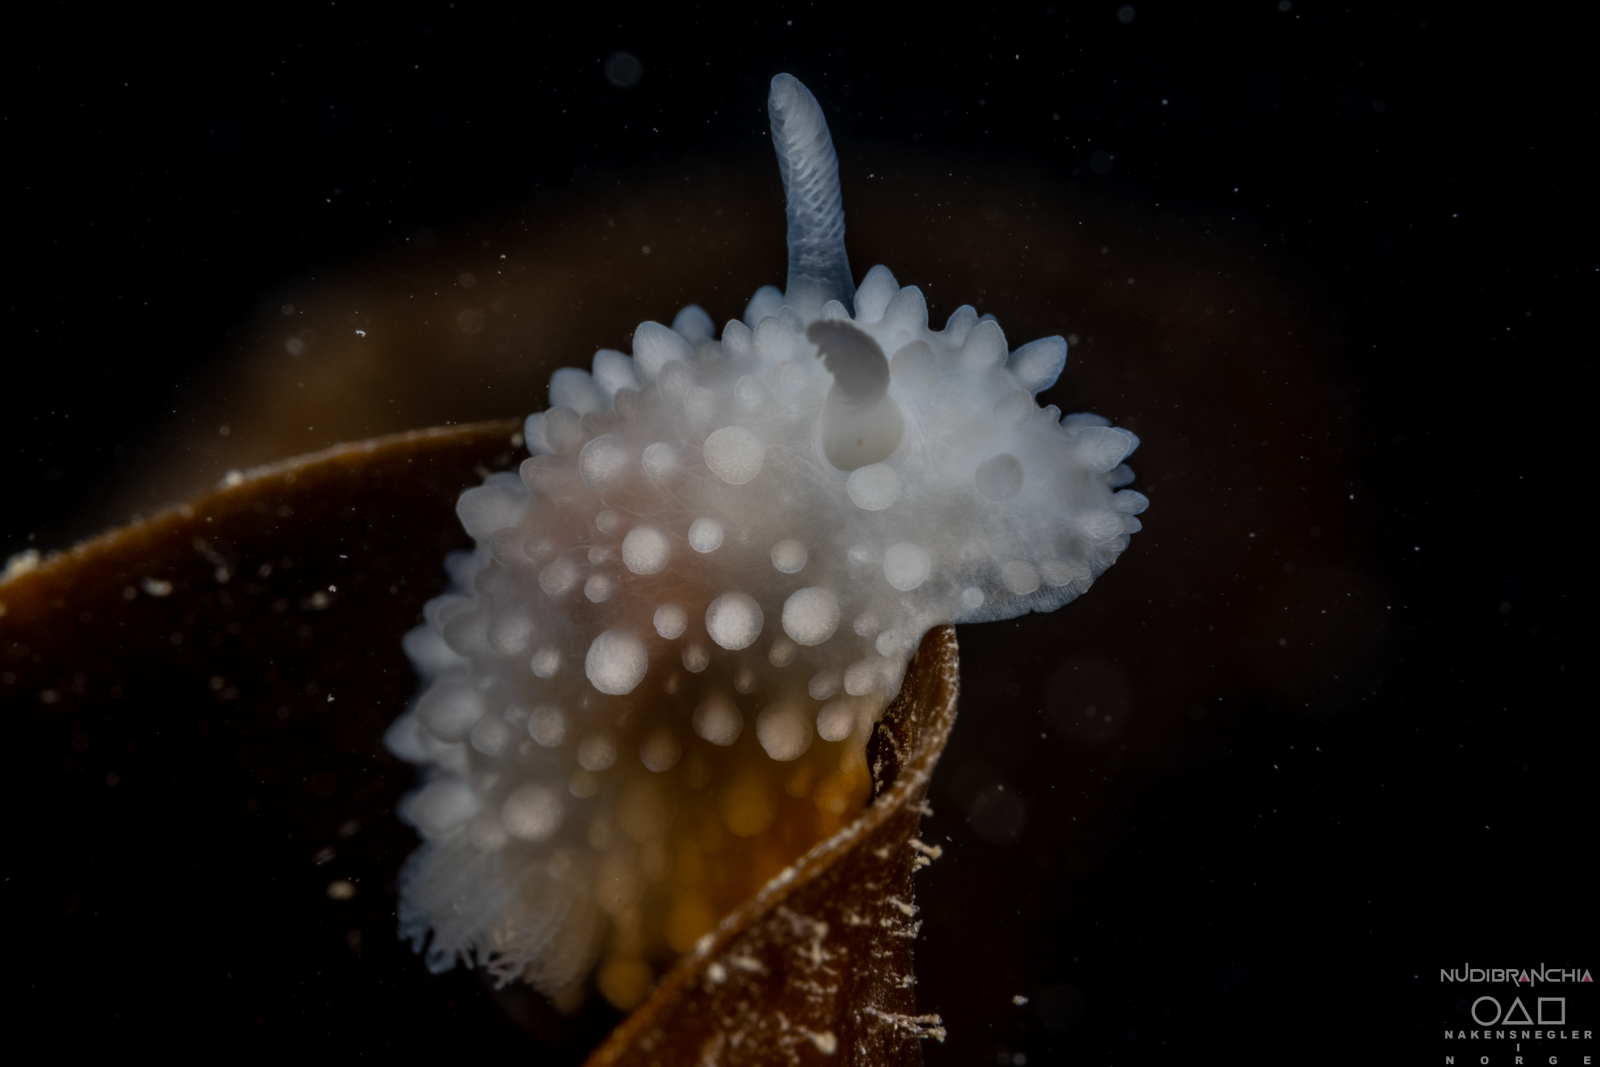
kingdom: Animalia
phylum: Mollusca
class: Gastropoda
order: Nudibranchia
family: Onchidorididae
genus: Adalaria
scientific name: Adalaria proxima
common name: False doris
